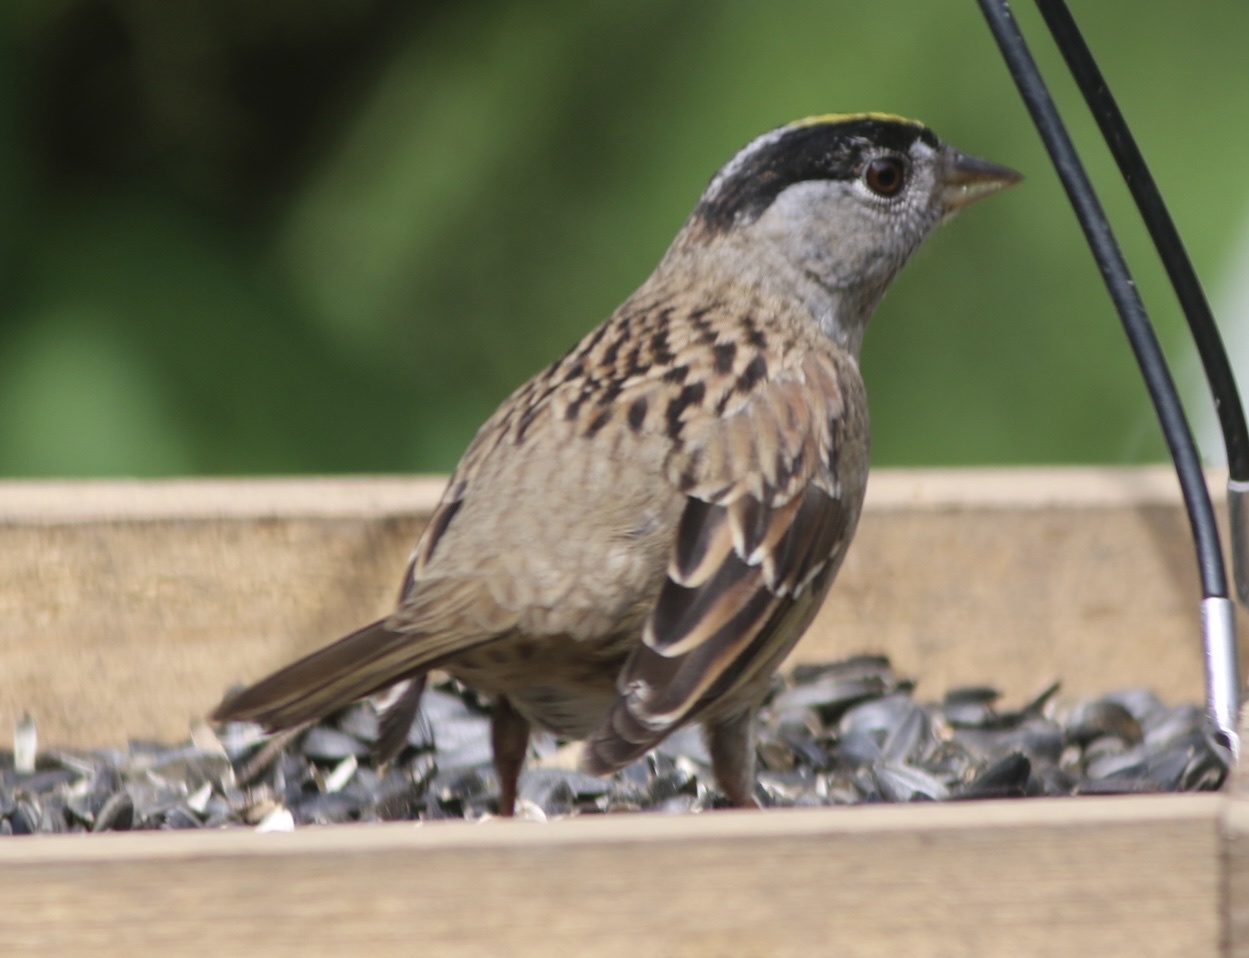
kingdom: Animalia
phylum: Chordata
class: Aves
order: Passeriformes
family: Passerellidae
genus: Zonotrichia
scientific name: Zonotrichia atricapilla
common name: Golden-crowned sparrow
